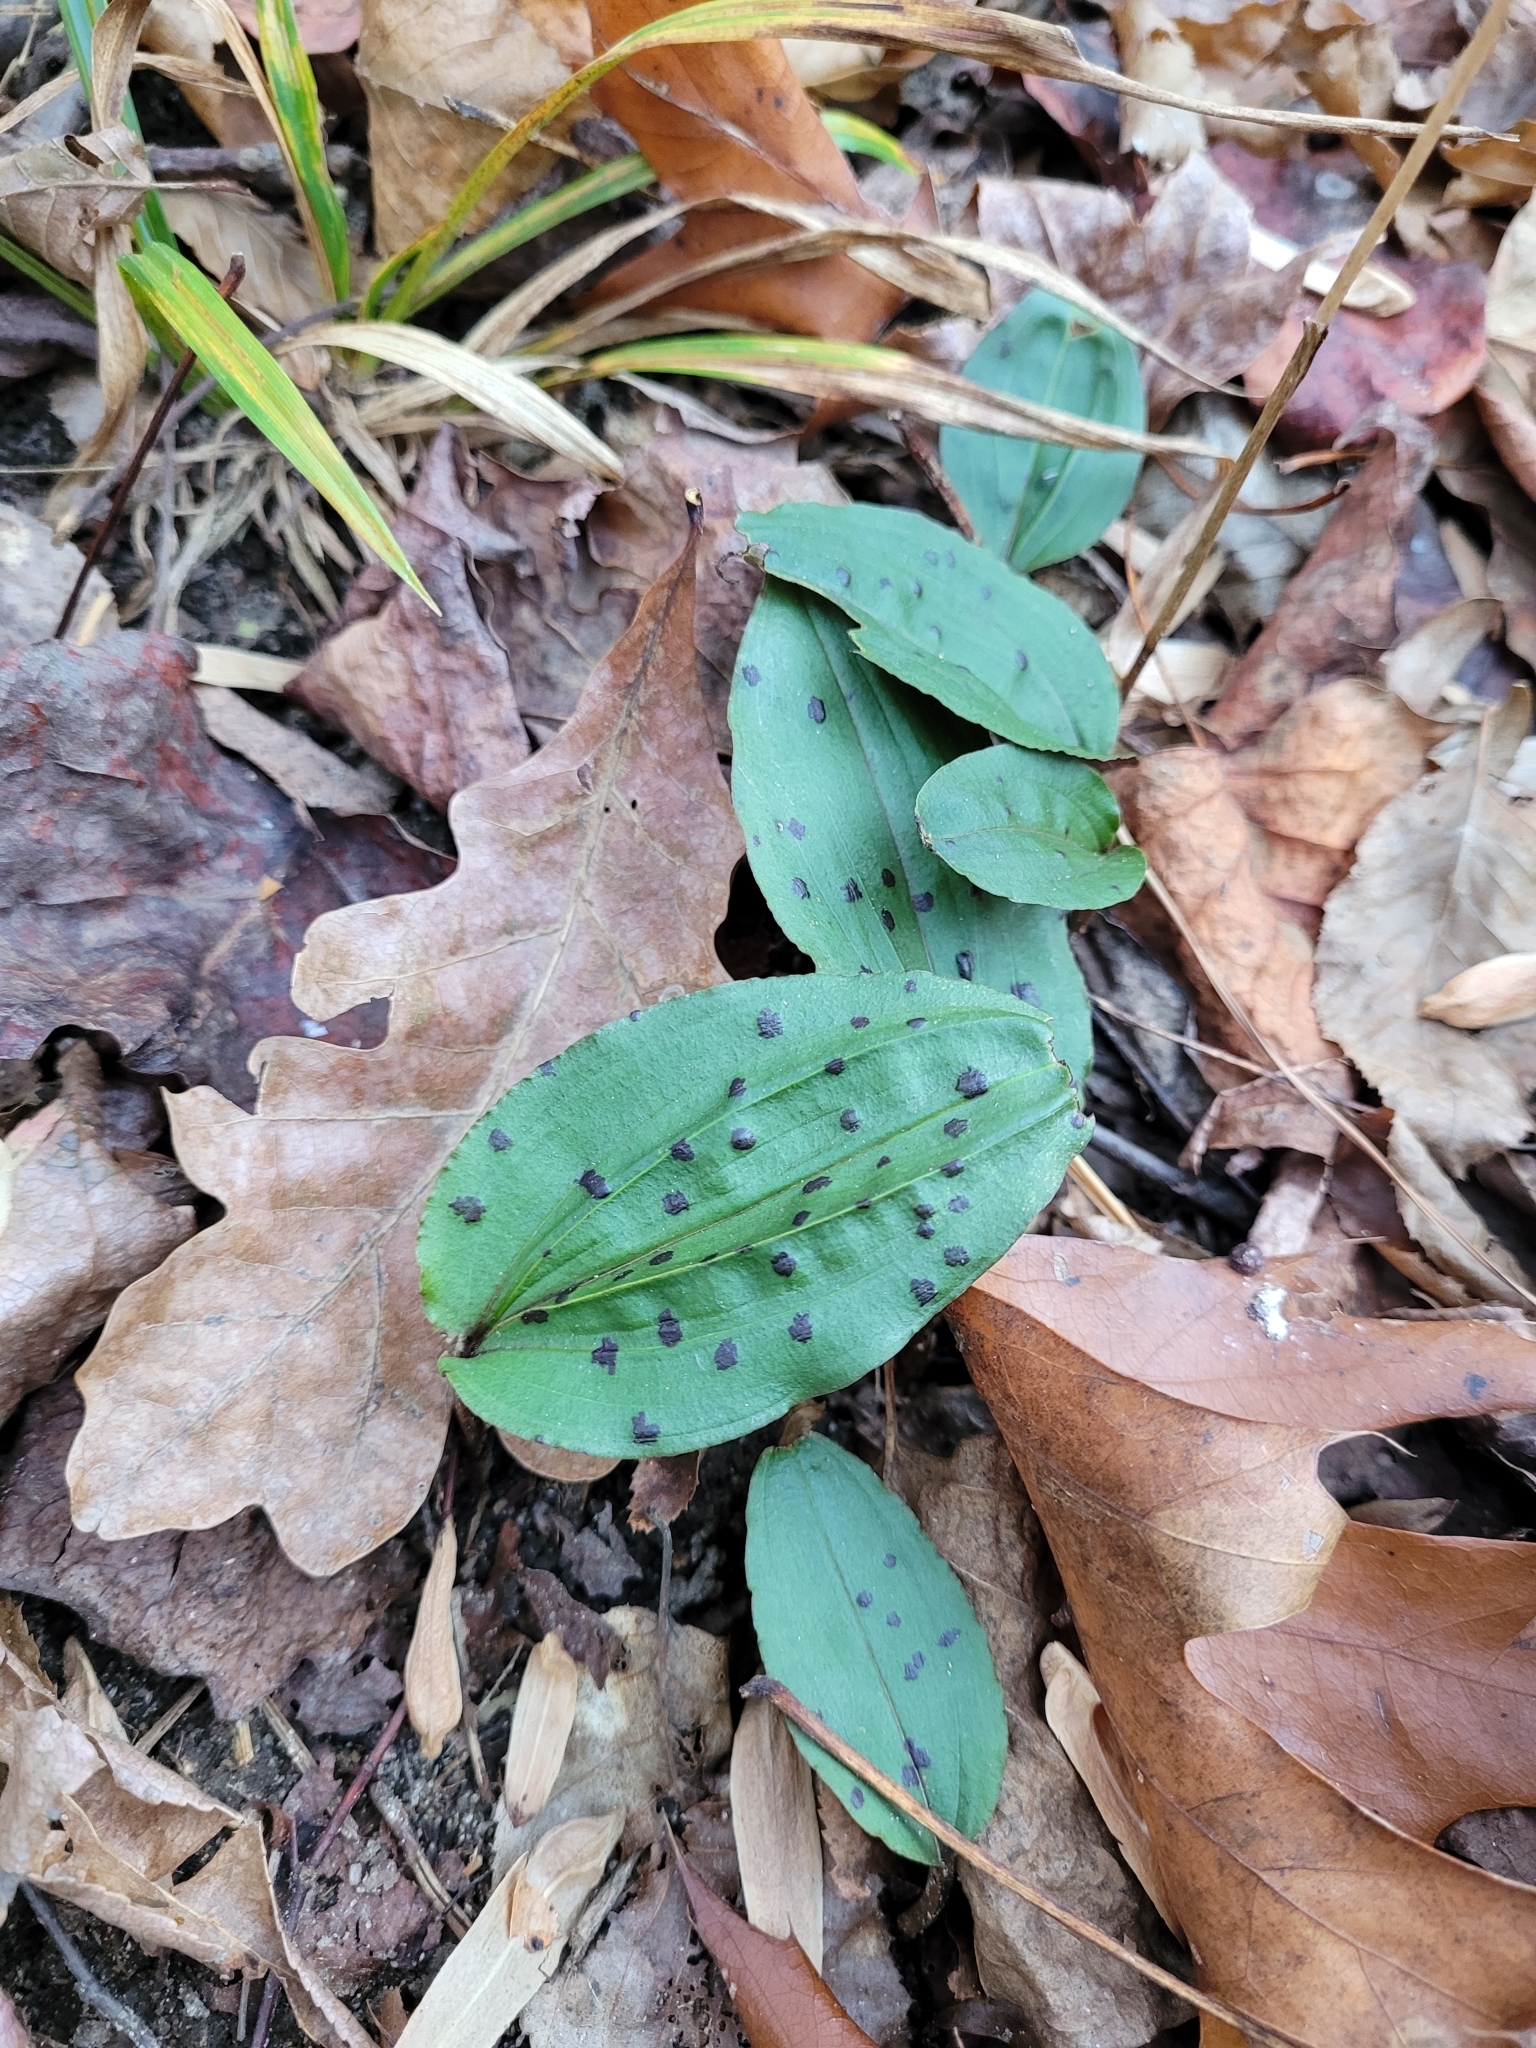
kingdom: Plantae
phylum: Tracheophyta
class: Liliopsida
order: Asparagales
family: Orchidaceae
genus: Tipularia
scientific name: Tipularia discolor
